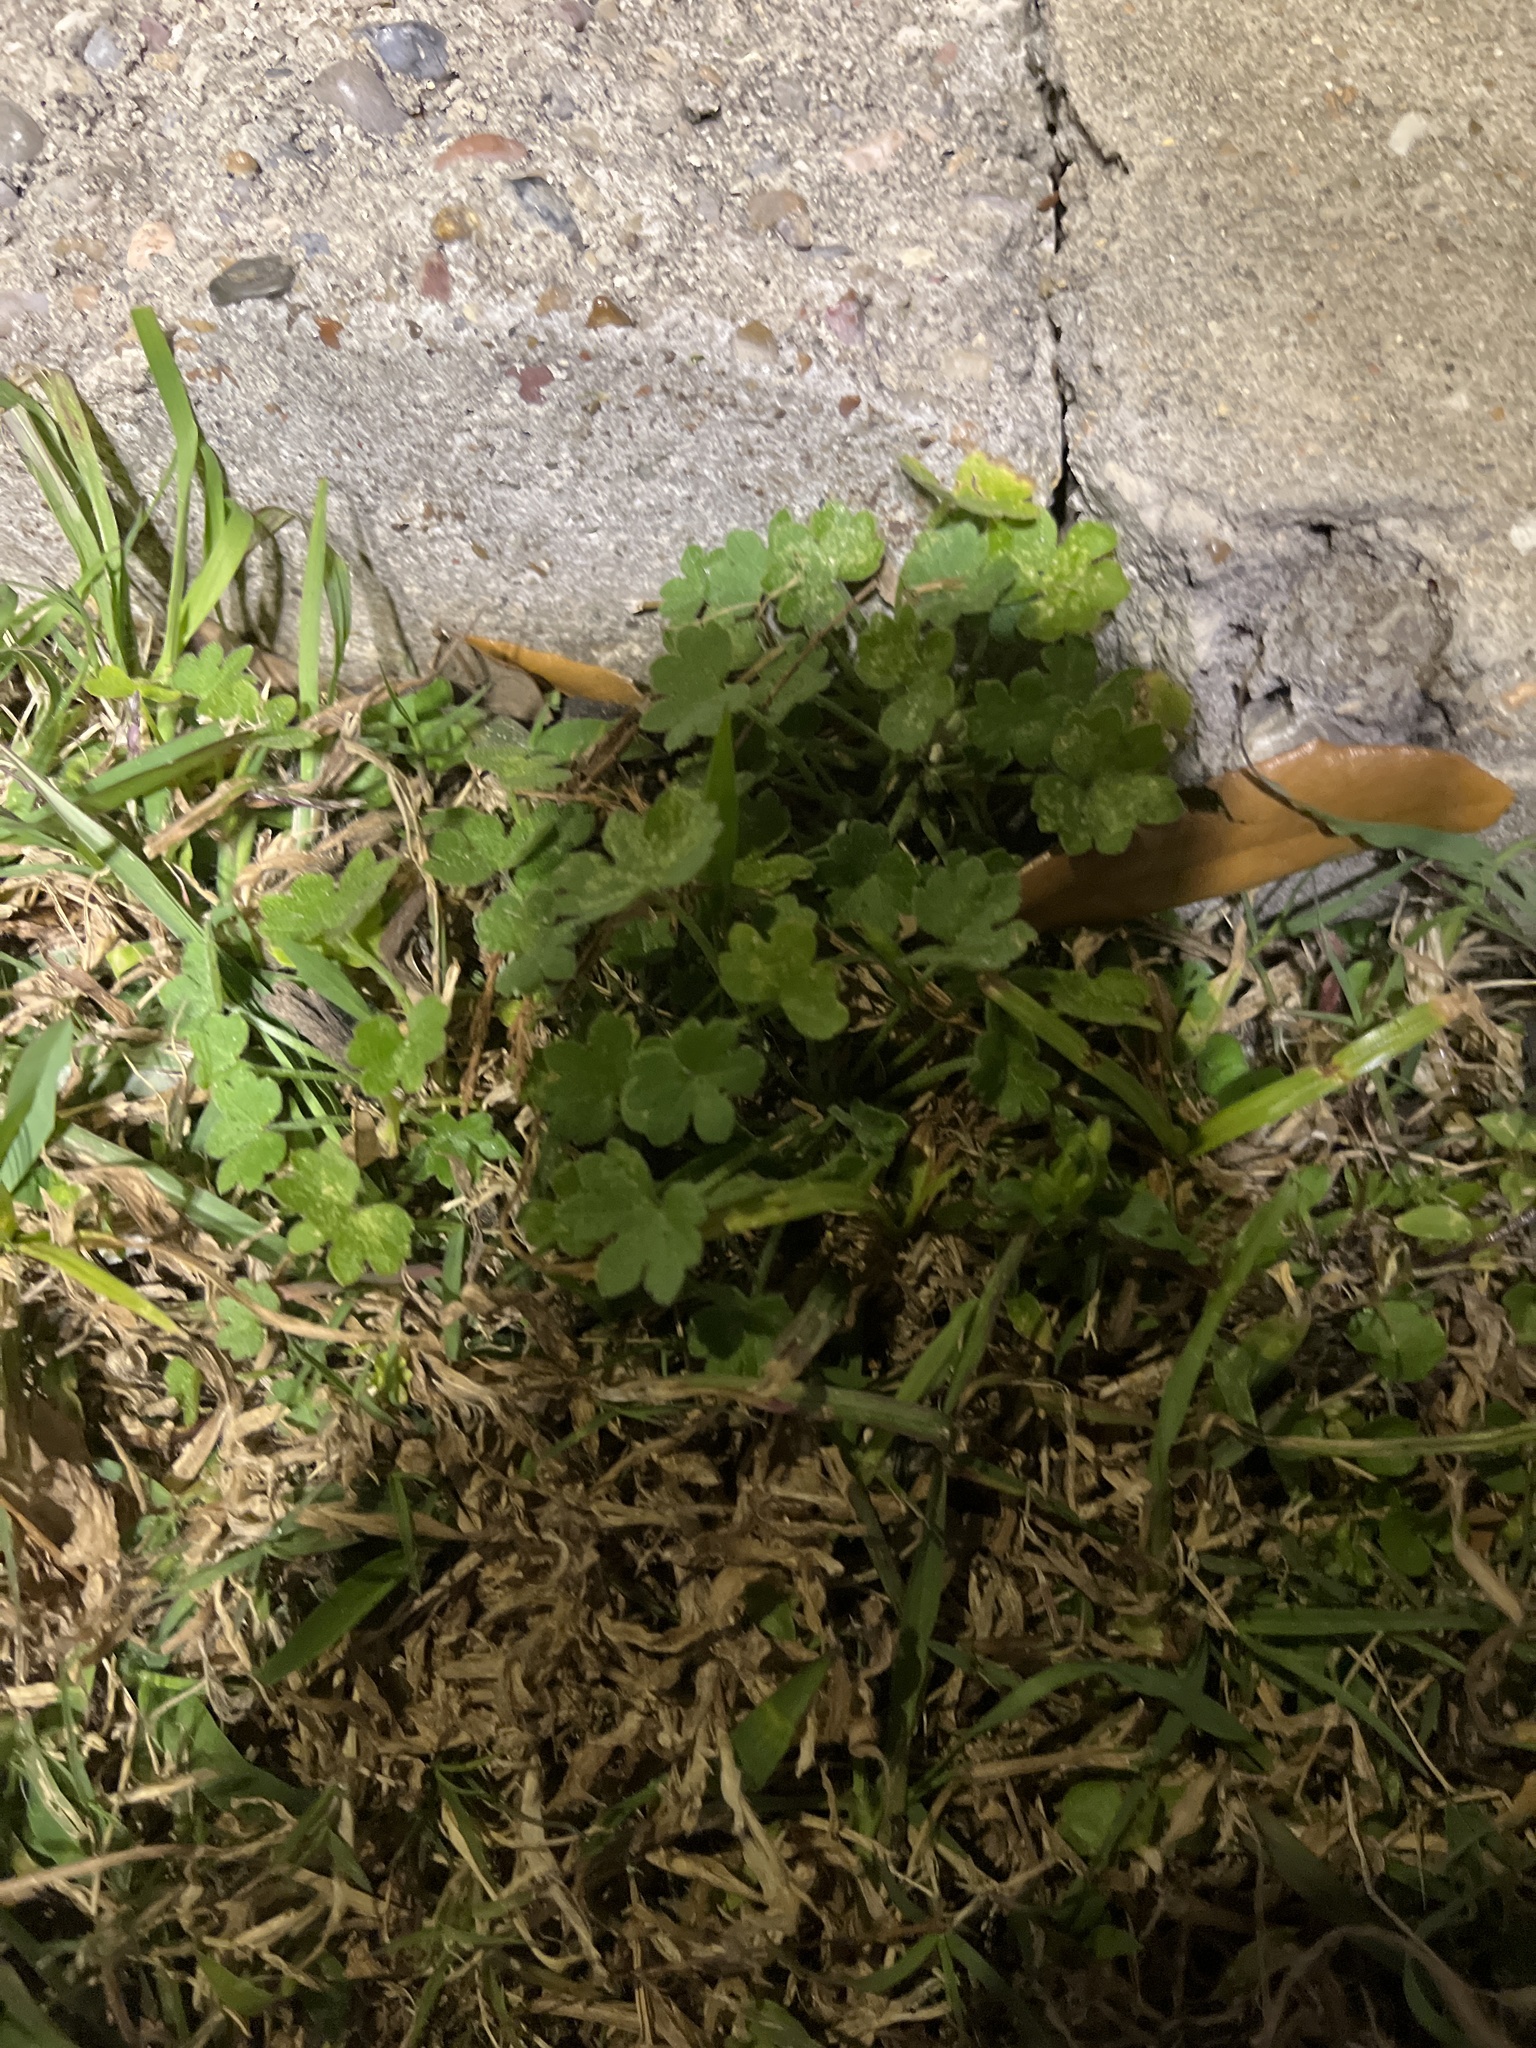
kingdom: Plantae
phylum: Tracheophyta
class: Magnoliopsida
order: Apiales
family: Apiaceae
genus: Bowlesia
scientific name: Bowlesia incana
